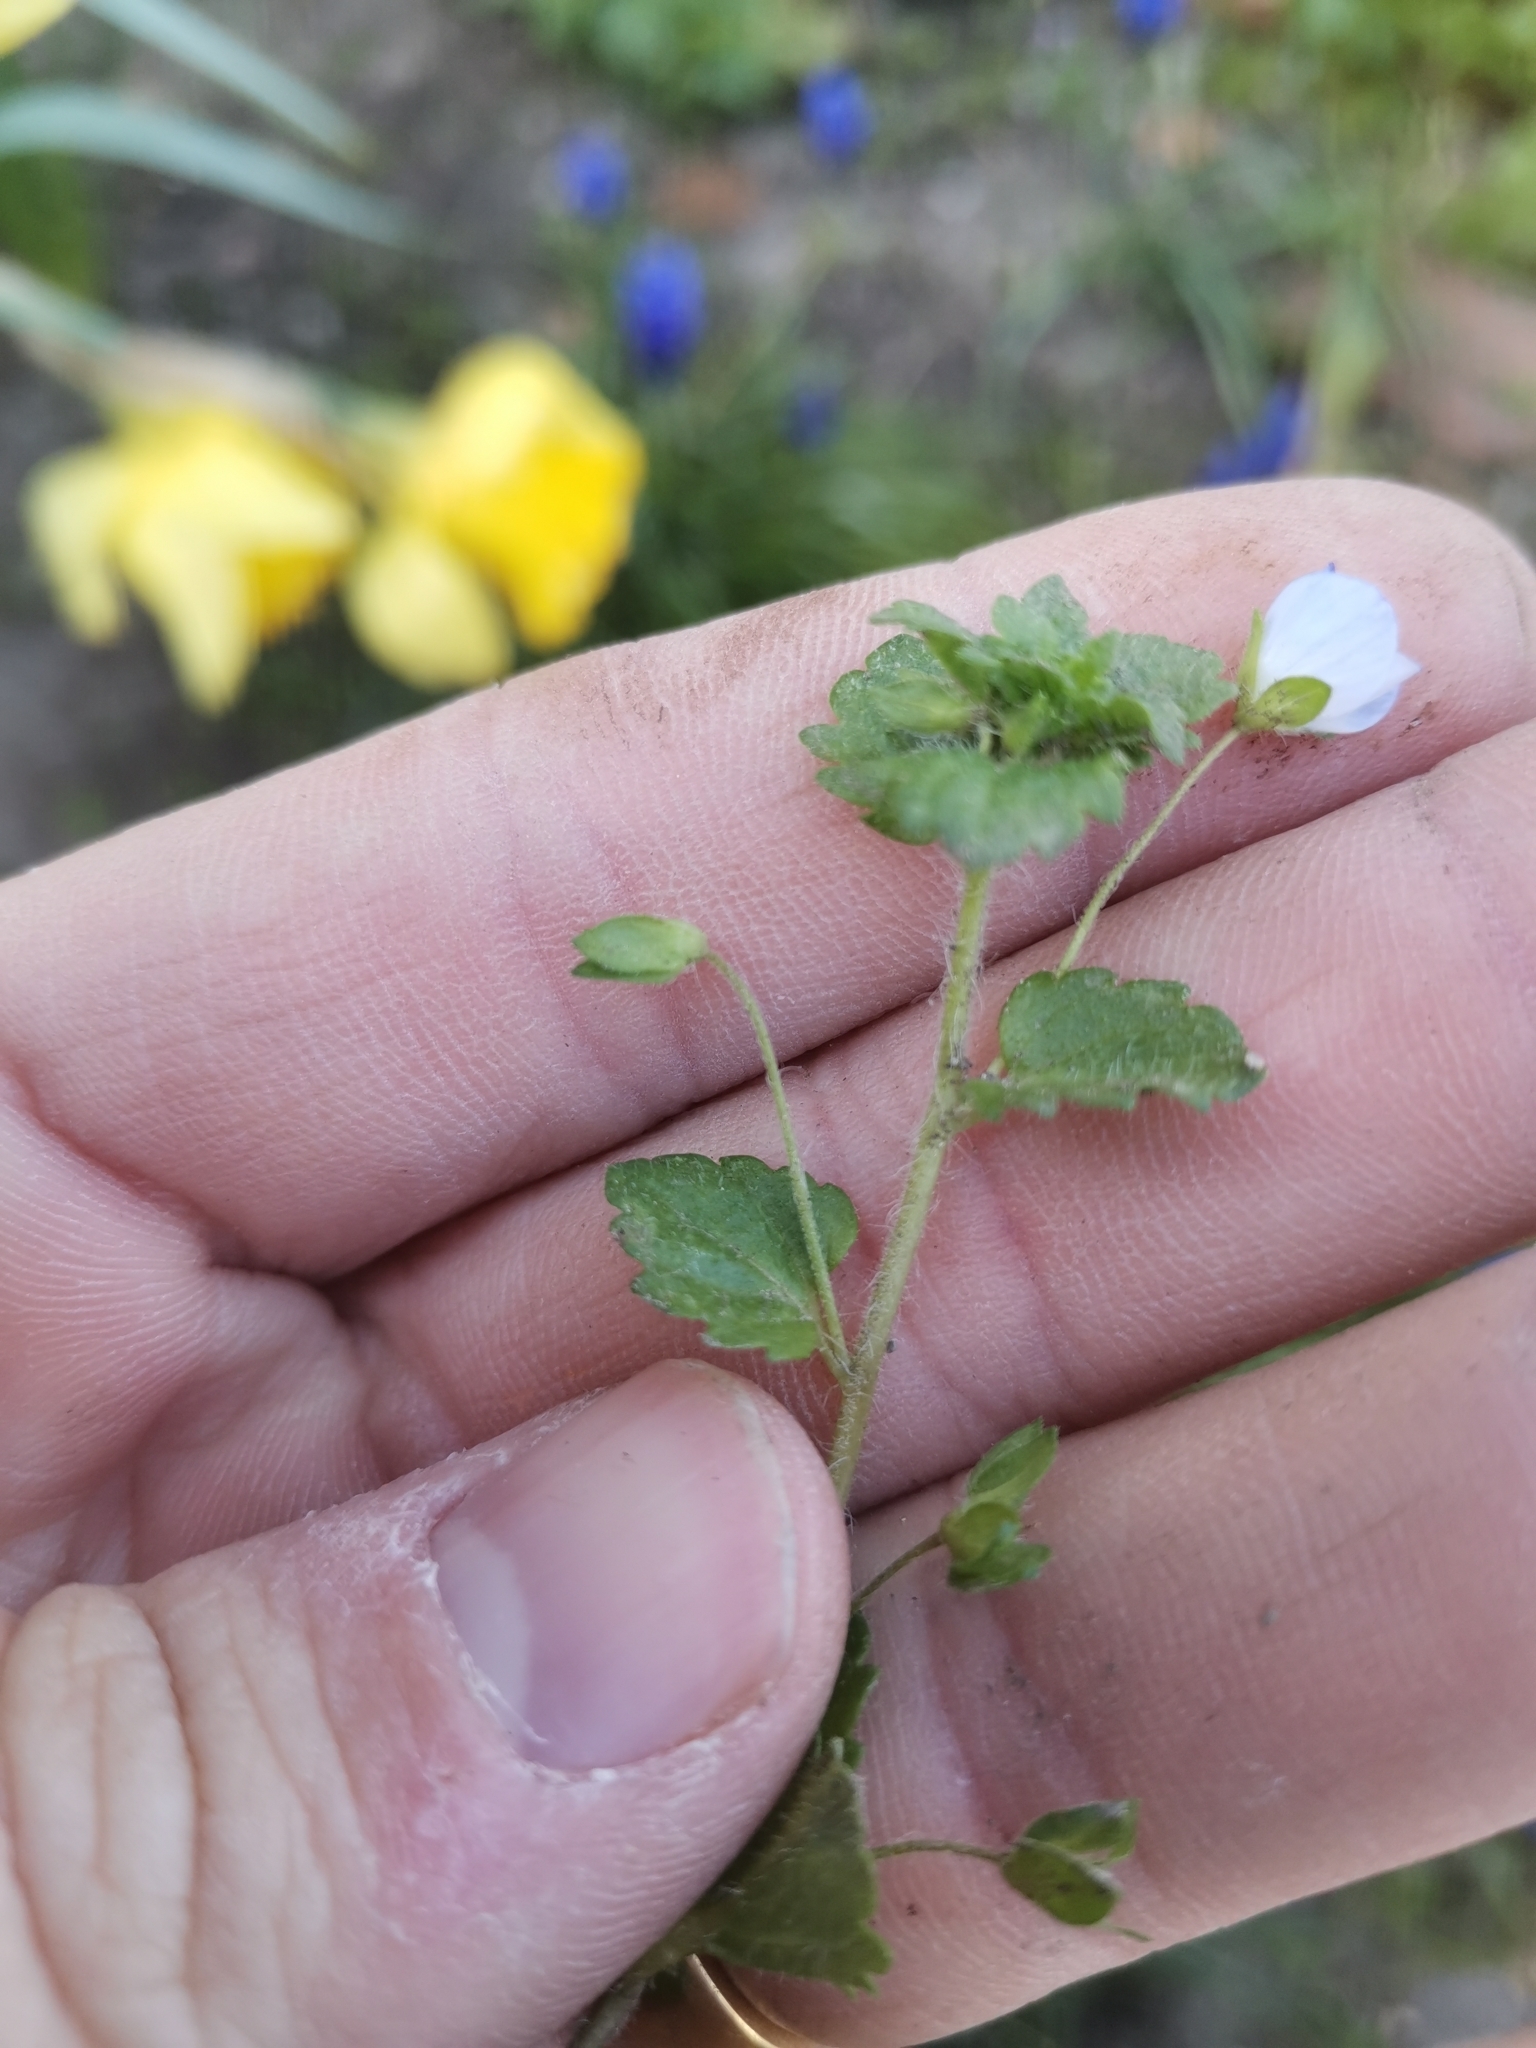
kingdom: Plantae
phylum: Tracheophyta
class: Magnoliopsida
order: Lamiales
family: Plantaginaceae
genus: Veronica
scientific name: Veronica filiformis
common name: Slender speedwell
